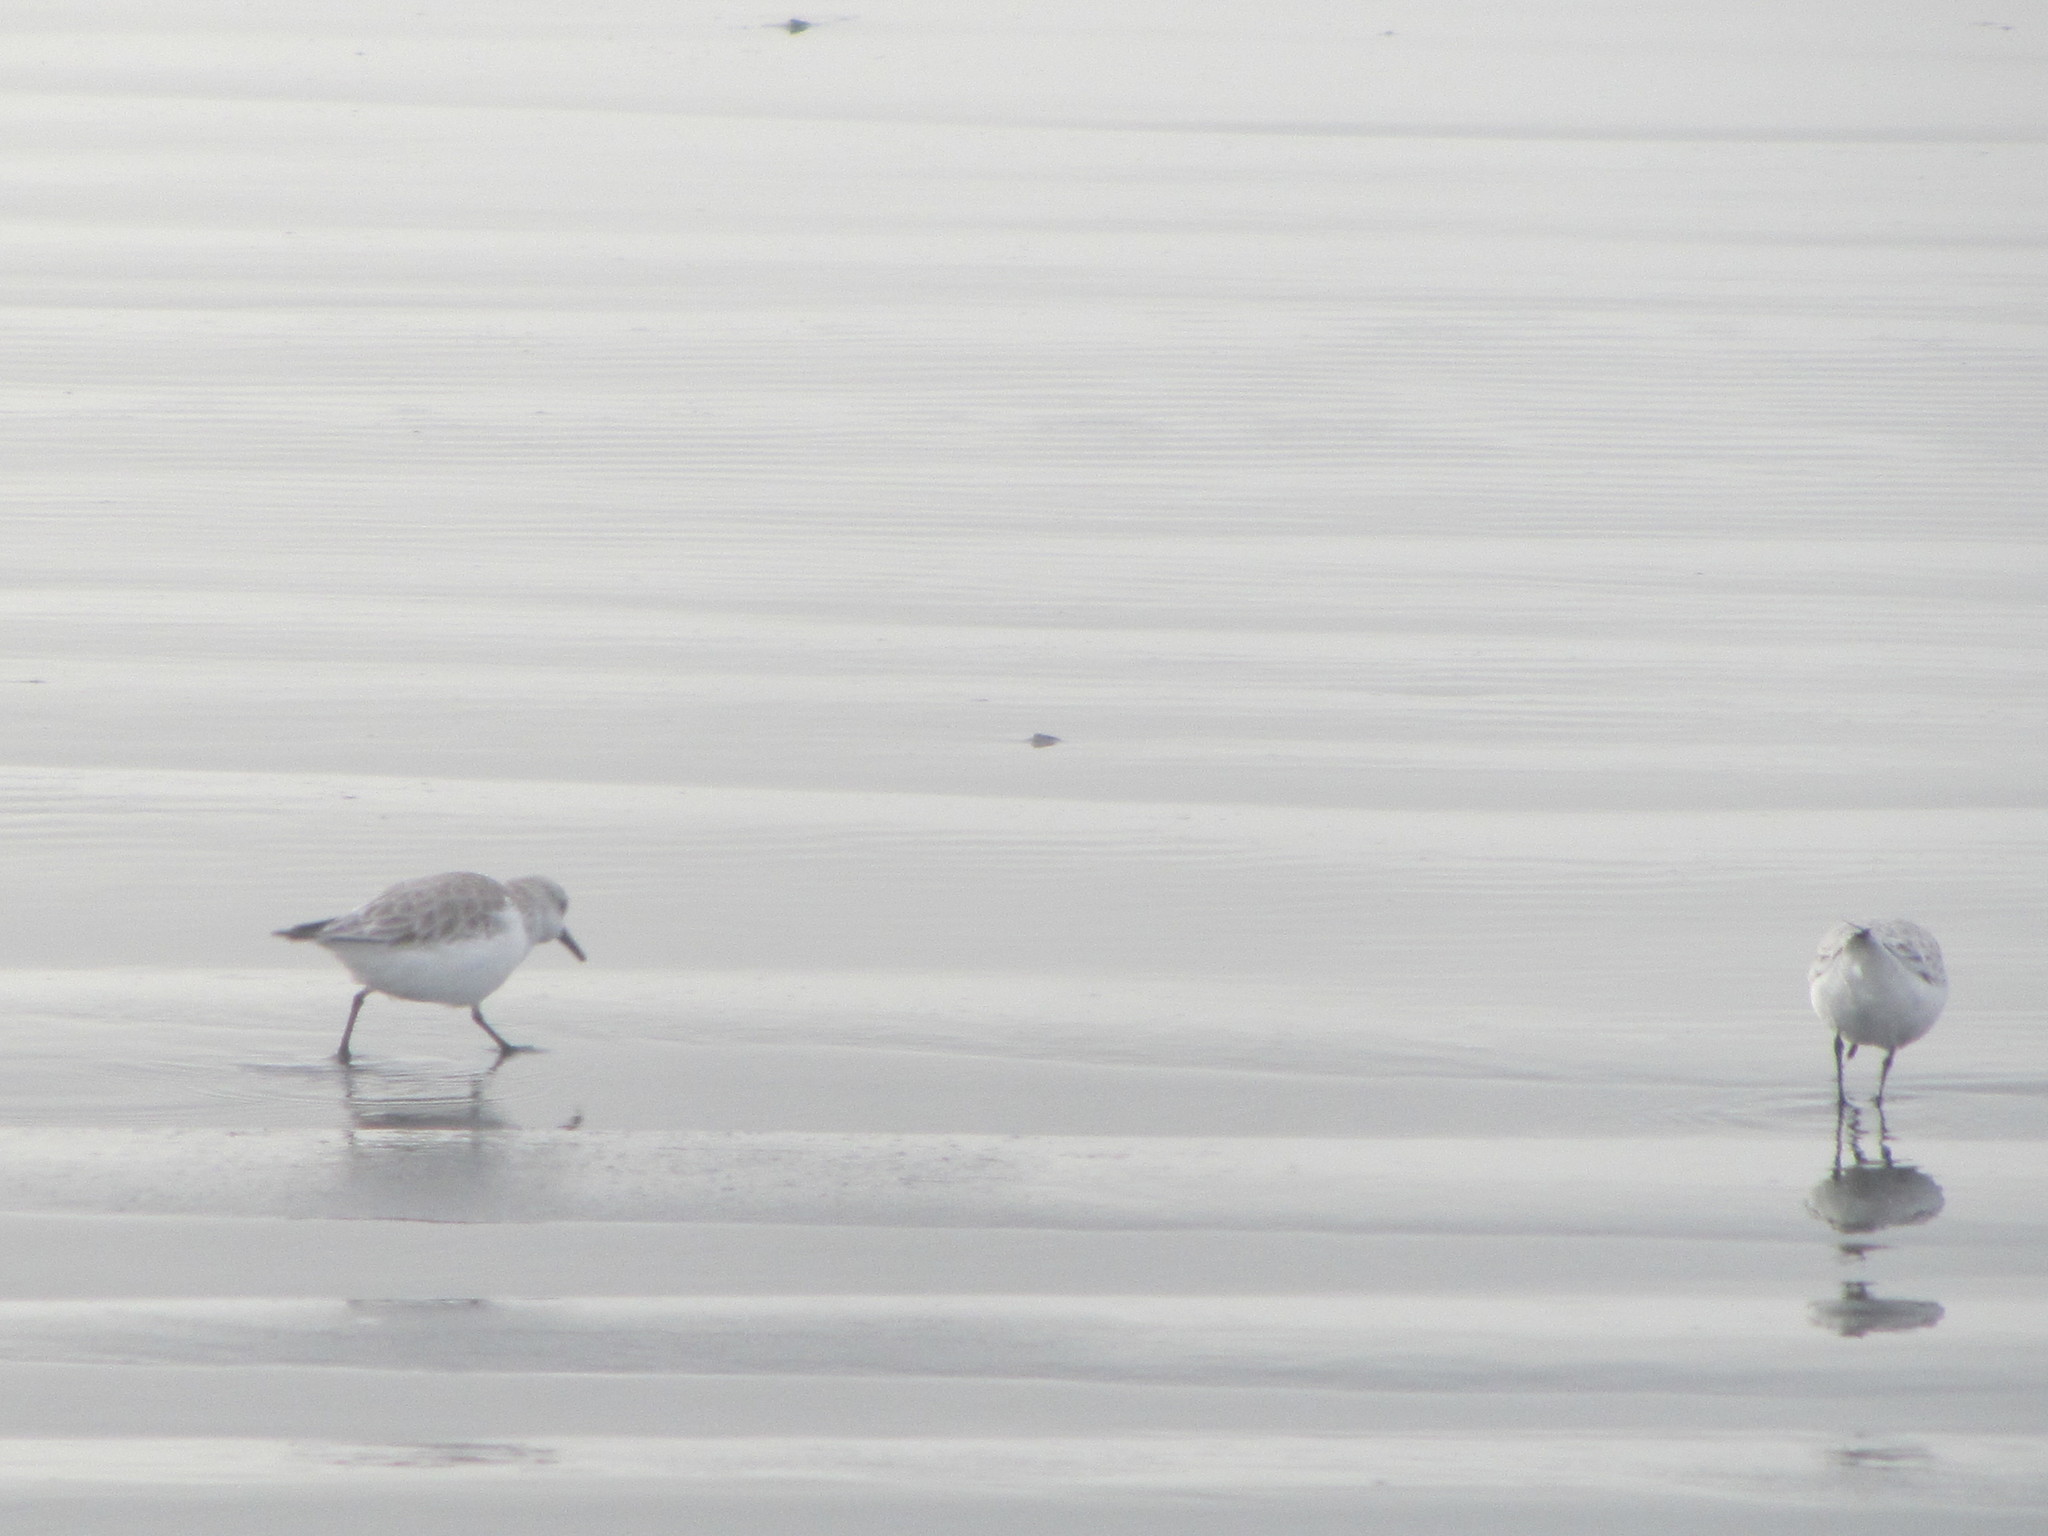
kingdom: Animalia
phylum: Chordata
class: Aves
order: Charadriiformes
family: Scolopacidae
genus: Calidris
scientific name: Calidris alba
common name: Sanderling
